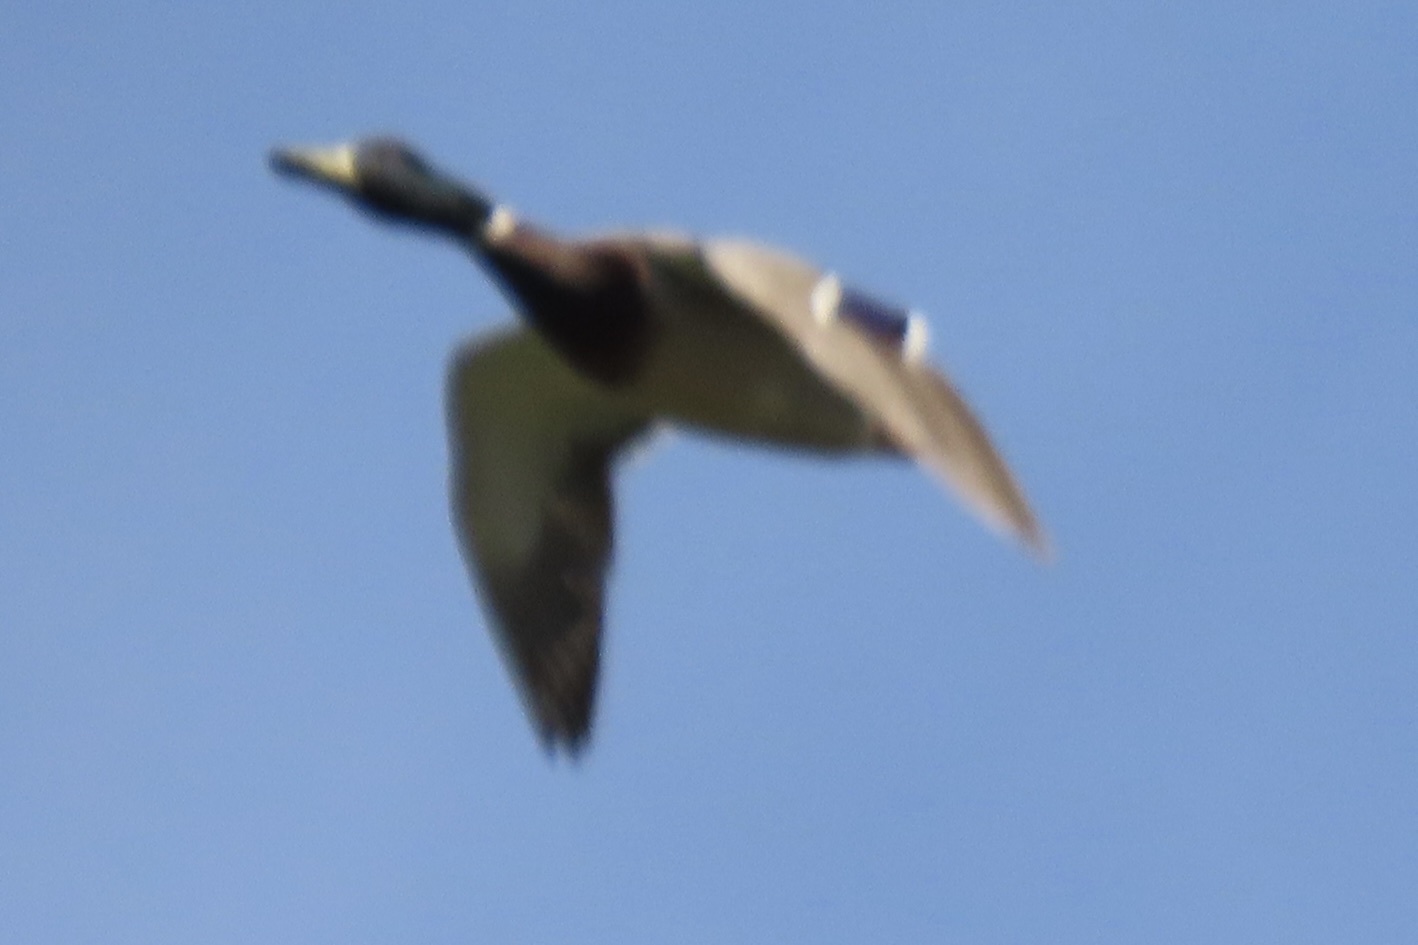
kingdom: Animalia
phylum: Chordata
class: Aves
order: Anseriformes
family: Anatidae
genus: Anas
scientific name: Anas platyrhynchos
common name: Mallard
